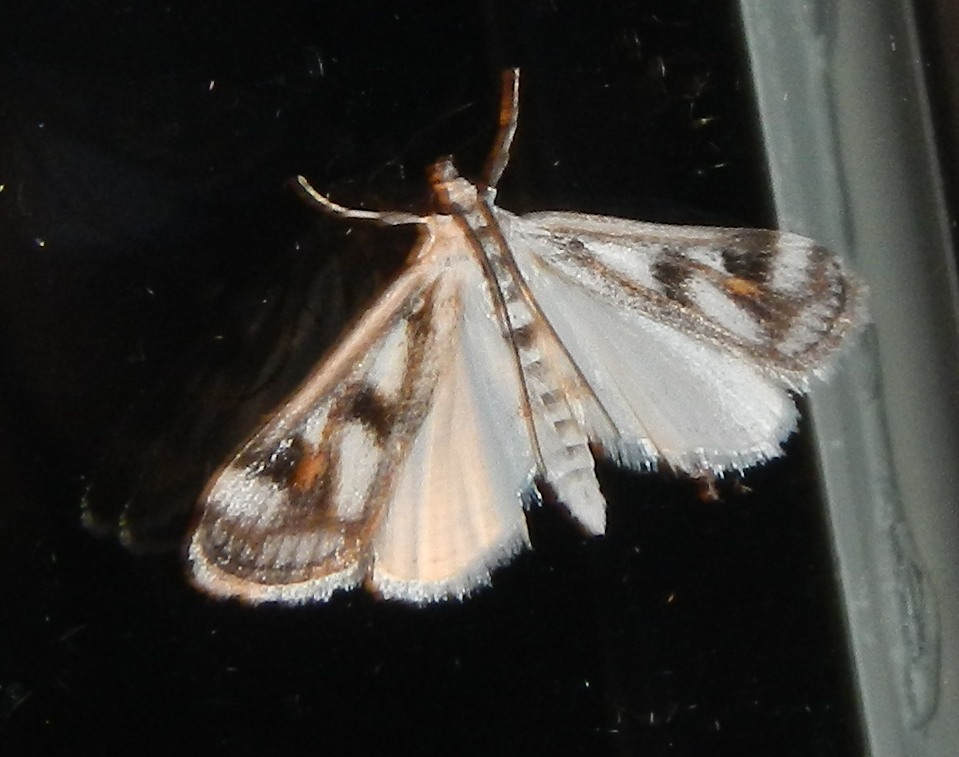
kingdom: Animalia
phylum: Arthropoda
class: Insecta
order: Lepidoptera
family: Crambidae
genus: Parapoynx
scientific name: Parapoynx maculalis
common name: Polymorphic pondweed moth
